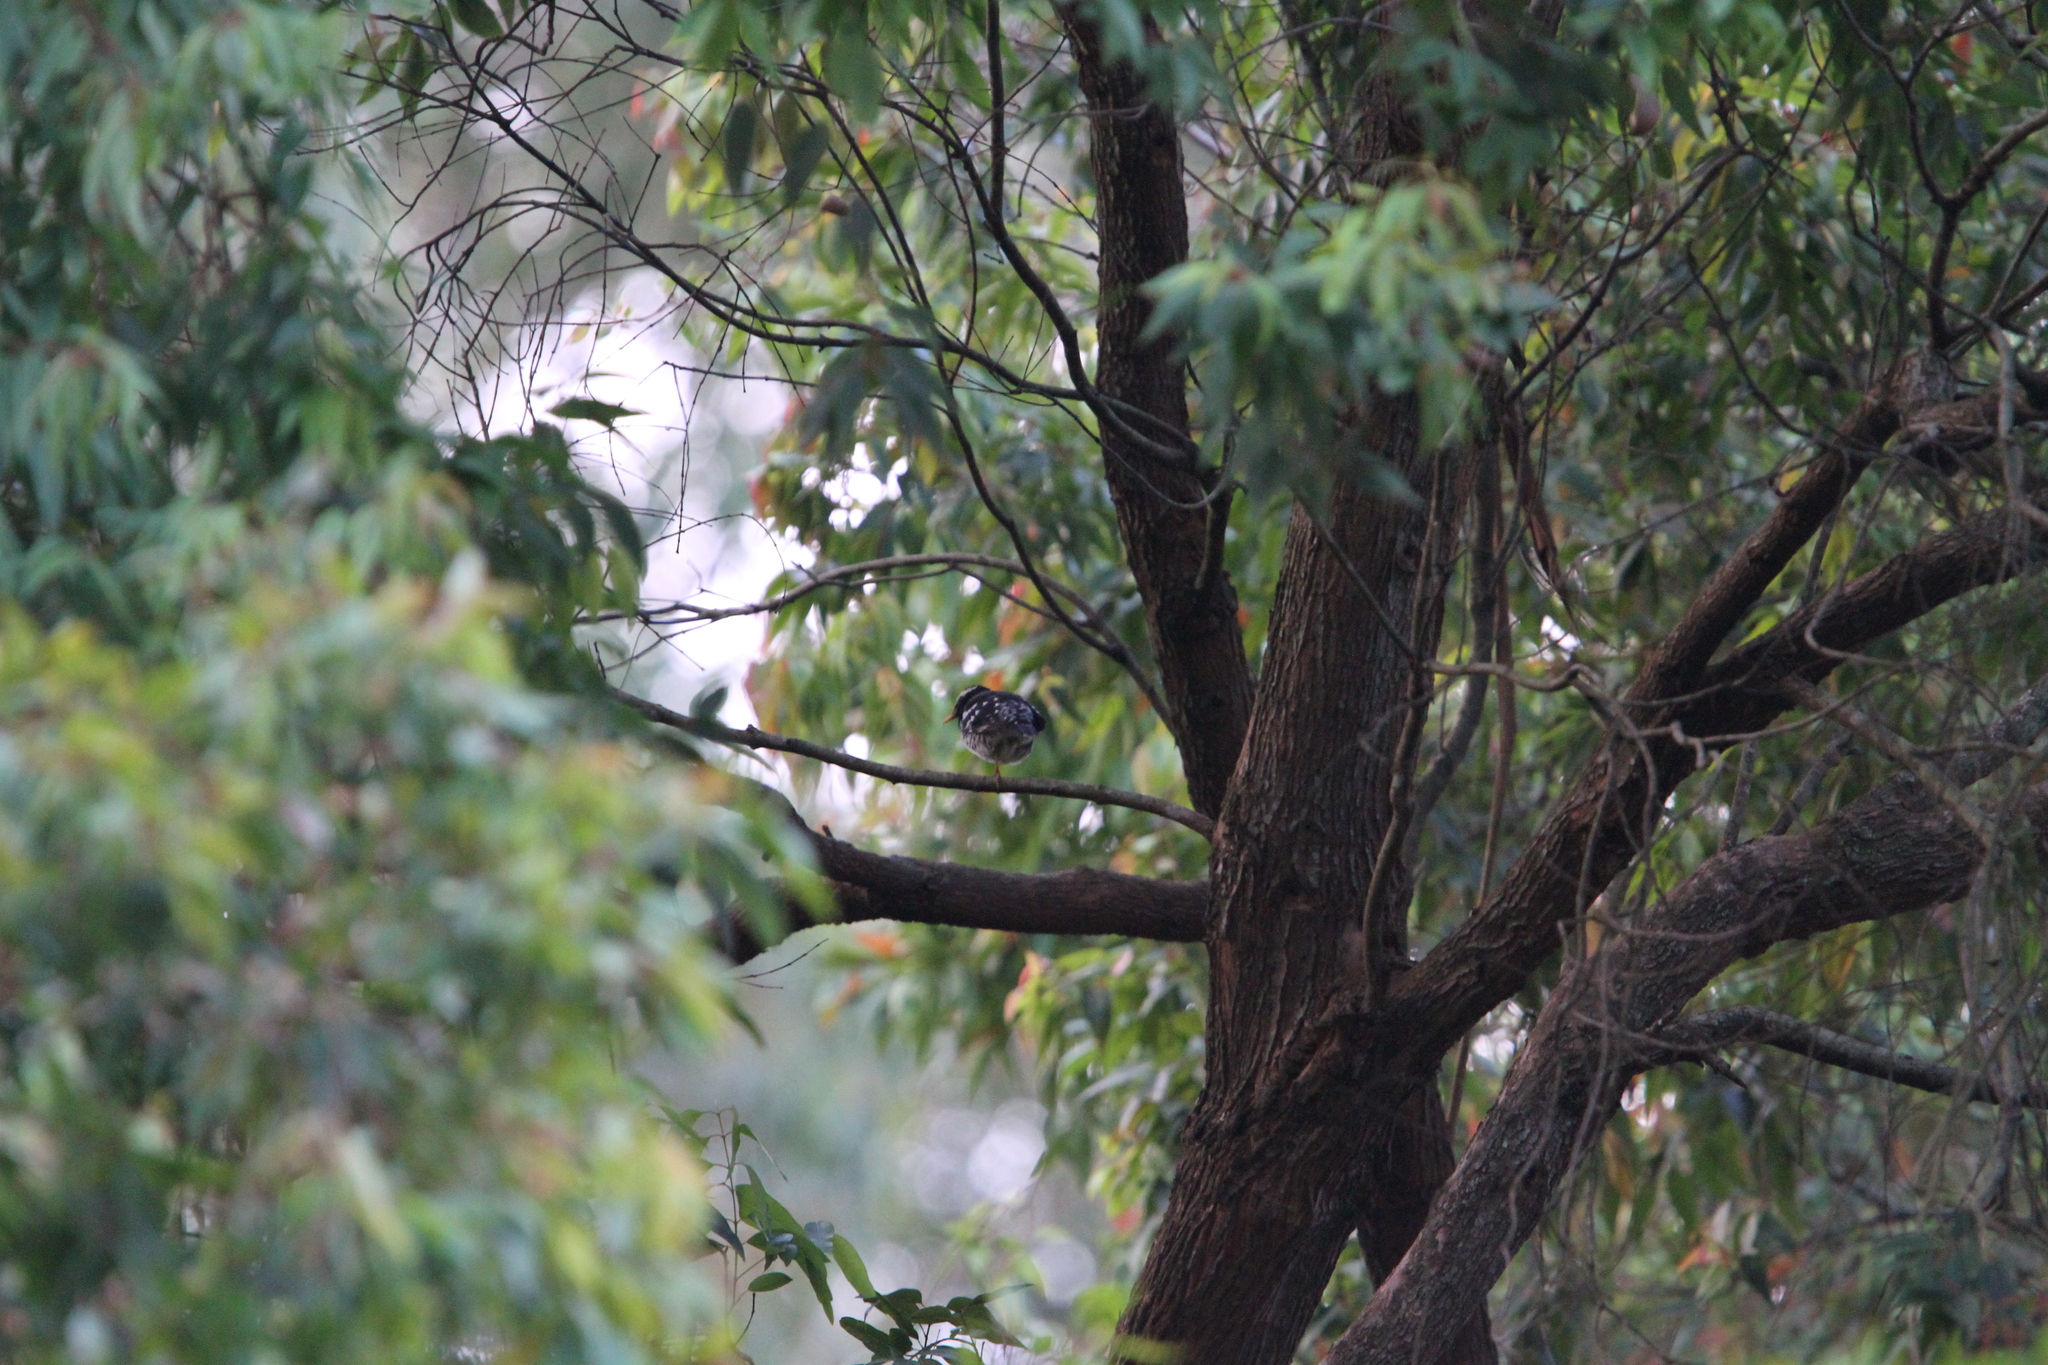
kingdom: Animalia
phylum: Chordata
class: Aves
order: Passeriformes
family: Turdidae
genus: Geokichla
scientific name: Geokichla wardii
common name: Pied thrush
